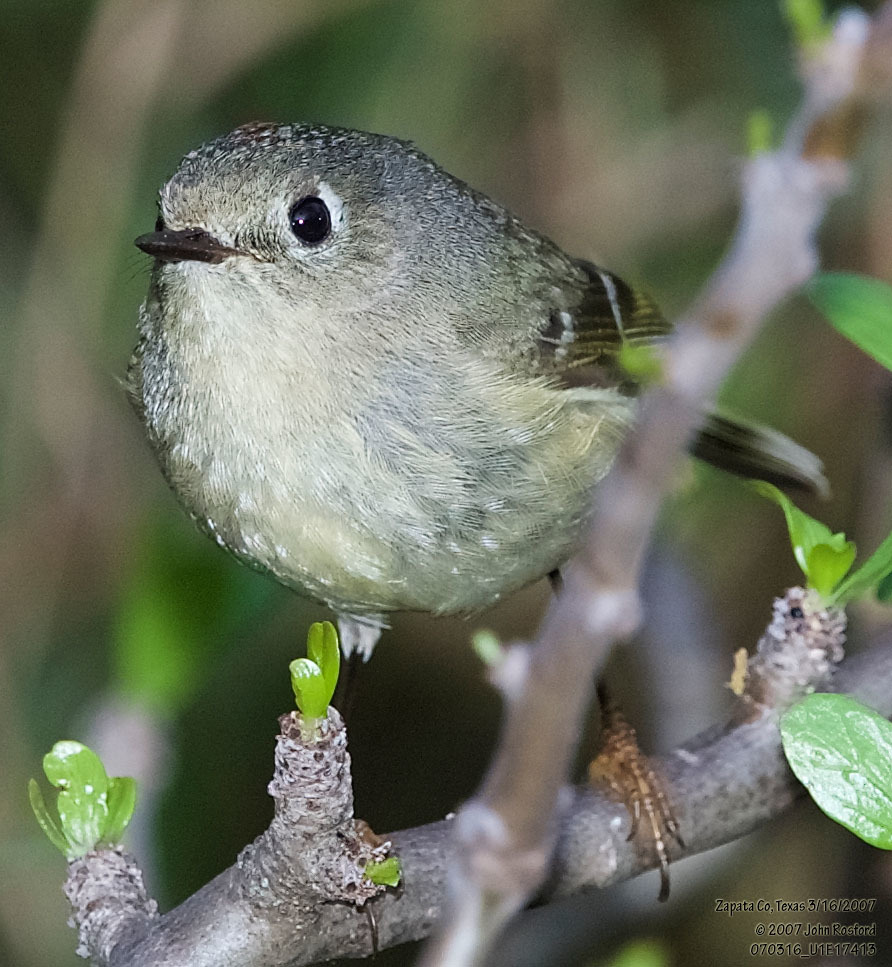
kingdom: Animalia
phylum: Chordata
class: Aves
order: Passeriformes
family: Regulidae
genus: Regulus
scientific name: Regulus calendula
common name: Ruby-crowned kinglet
